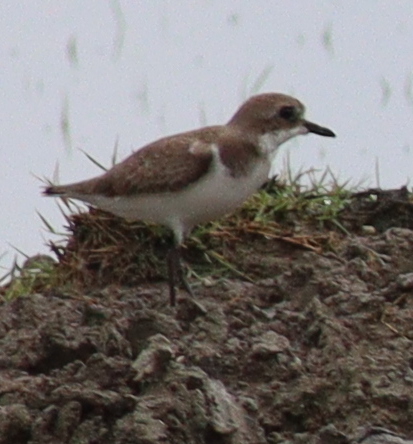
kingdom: Animalia
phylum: Chordata
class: Aves
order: Charadriiformes
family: Charadriidae
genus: Anarhynchus
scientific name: Anarhynchus
